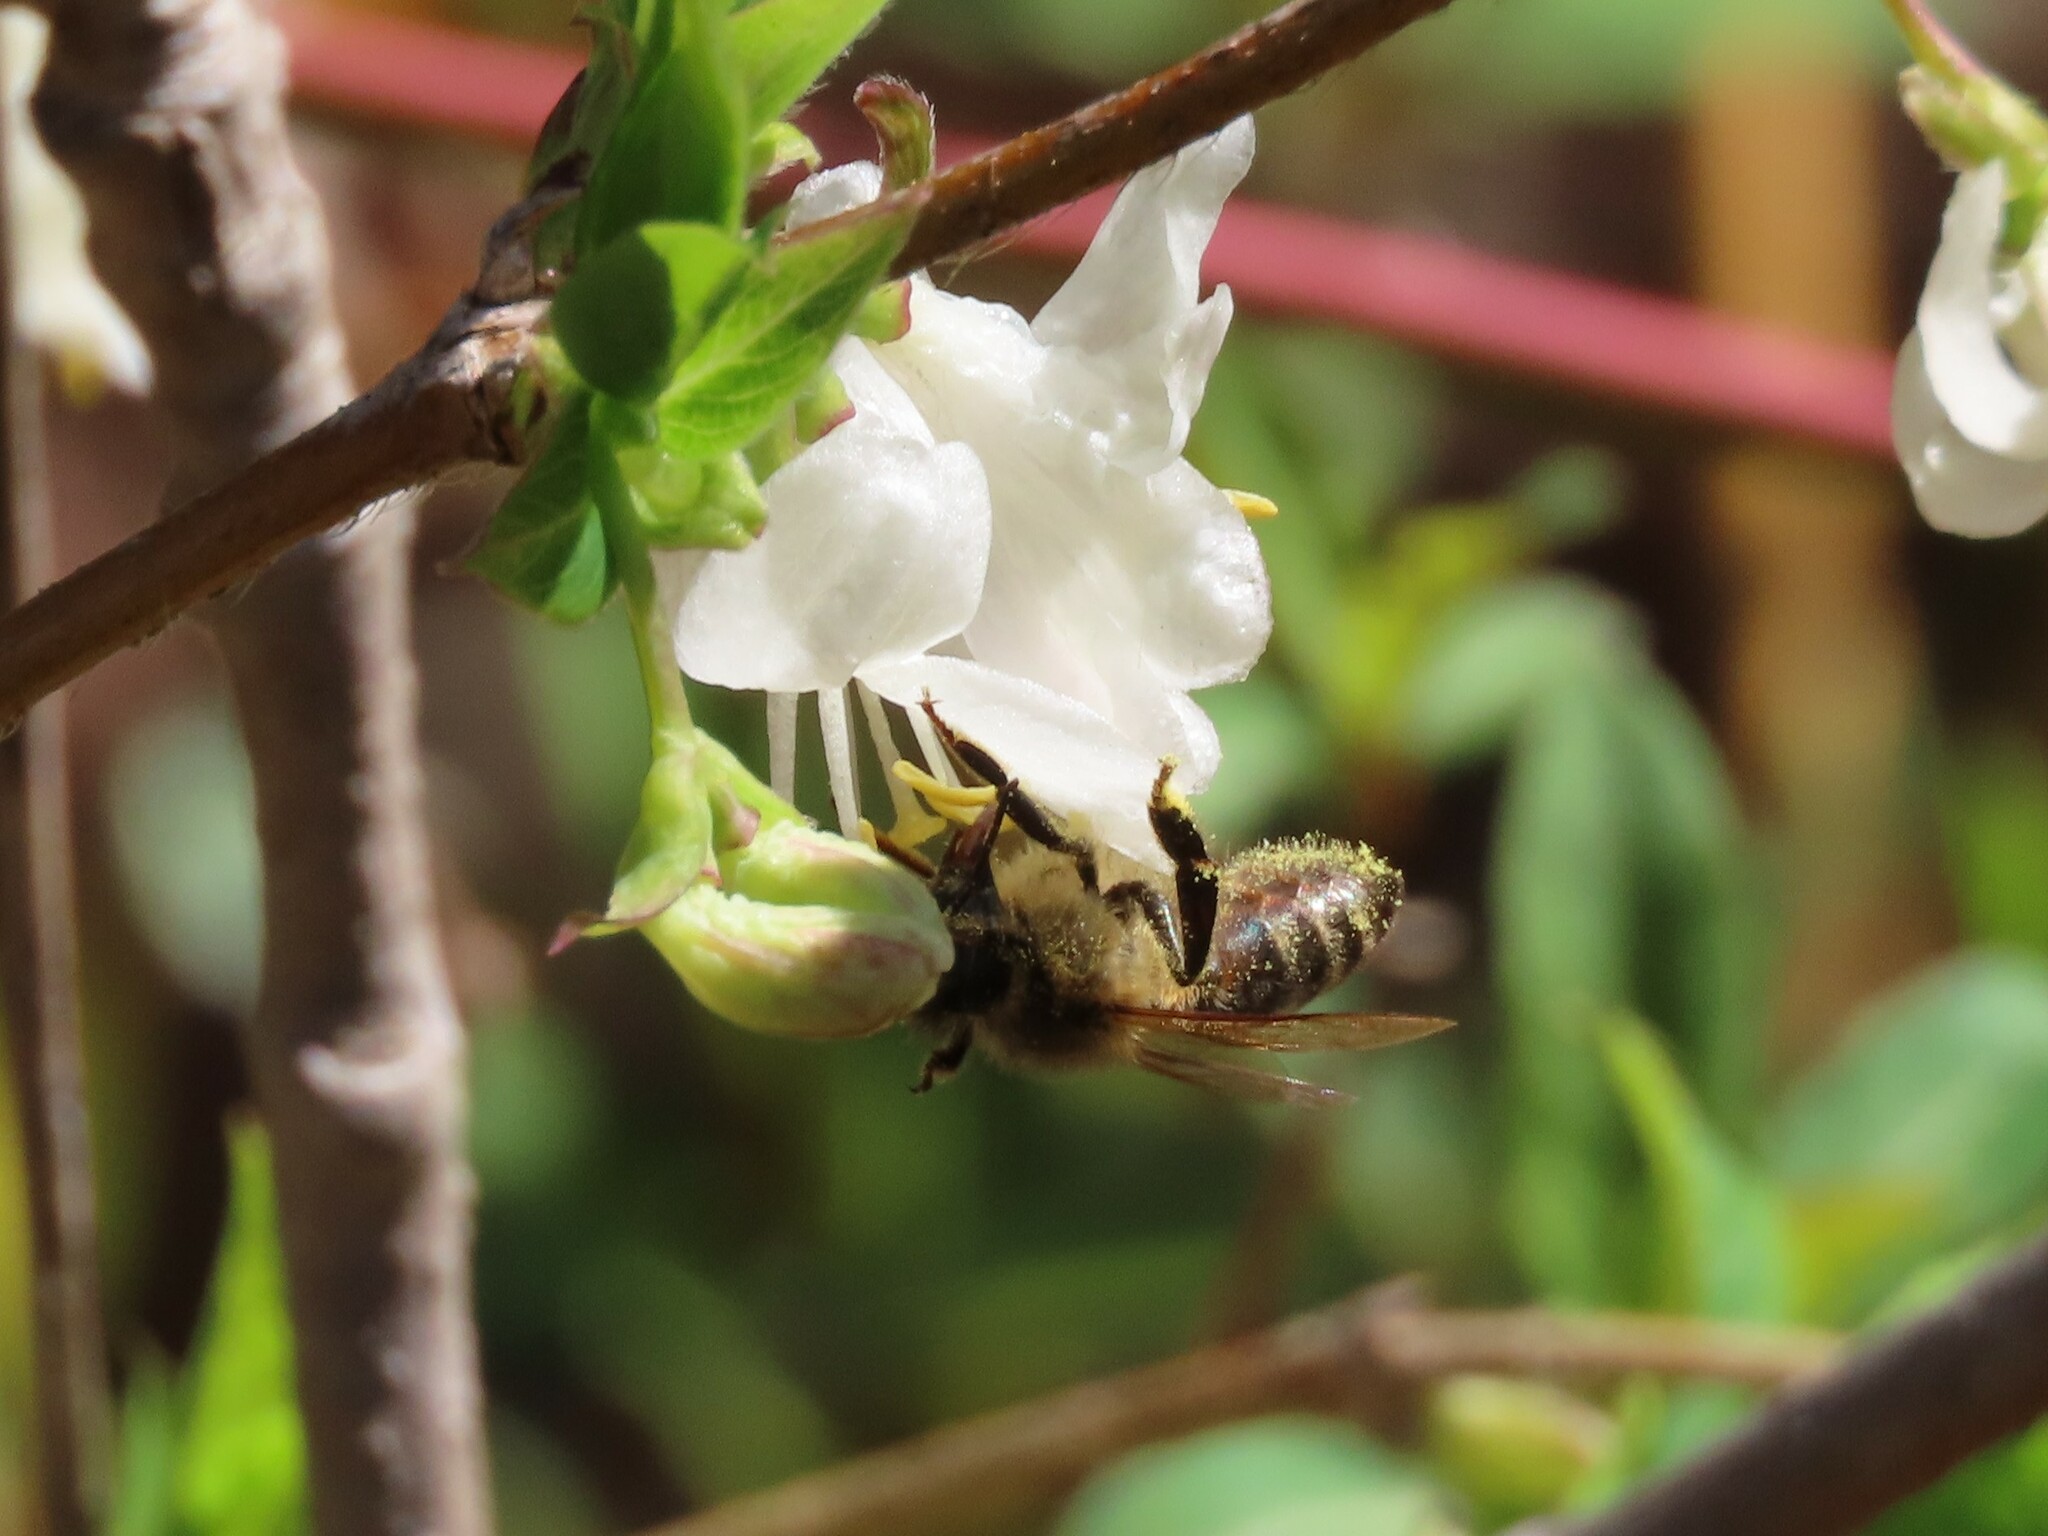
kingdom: Animalia
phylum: Arthropoda
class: Insecta
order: Hymenoptera
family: Apidae
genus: Apis
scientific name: Apis mellifera
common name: Honey bee
